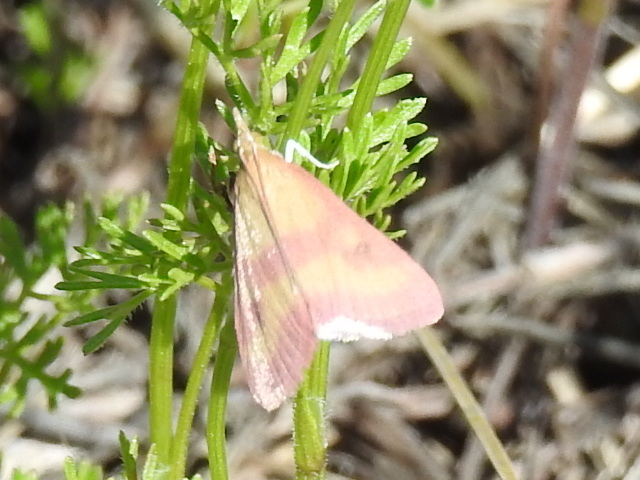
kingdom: Animalia
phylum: Arthropoda
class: Insecta
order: Lepidoptera
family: Crambidae
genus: Pyrausta
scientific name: Pyrausta laticlavia
